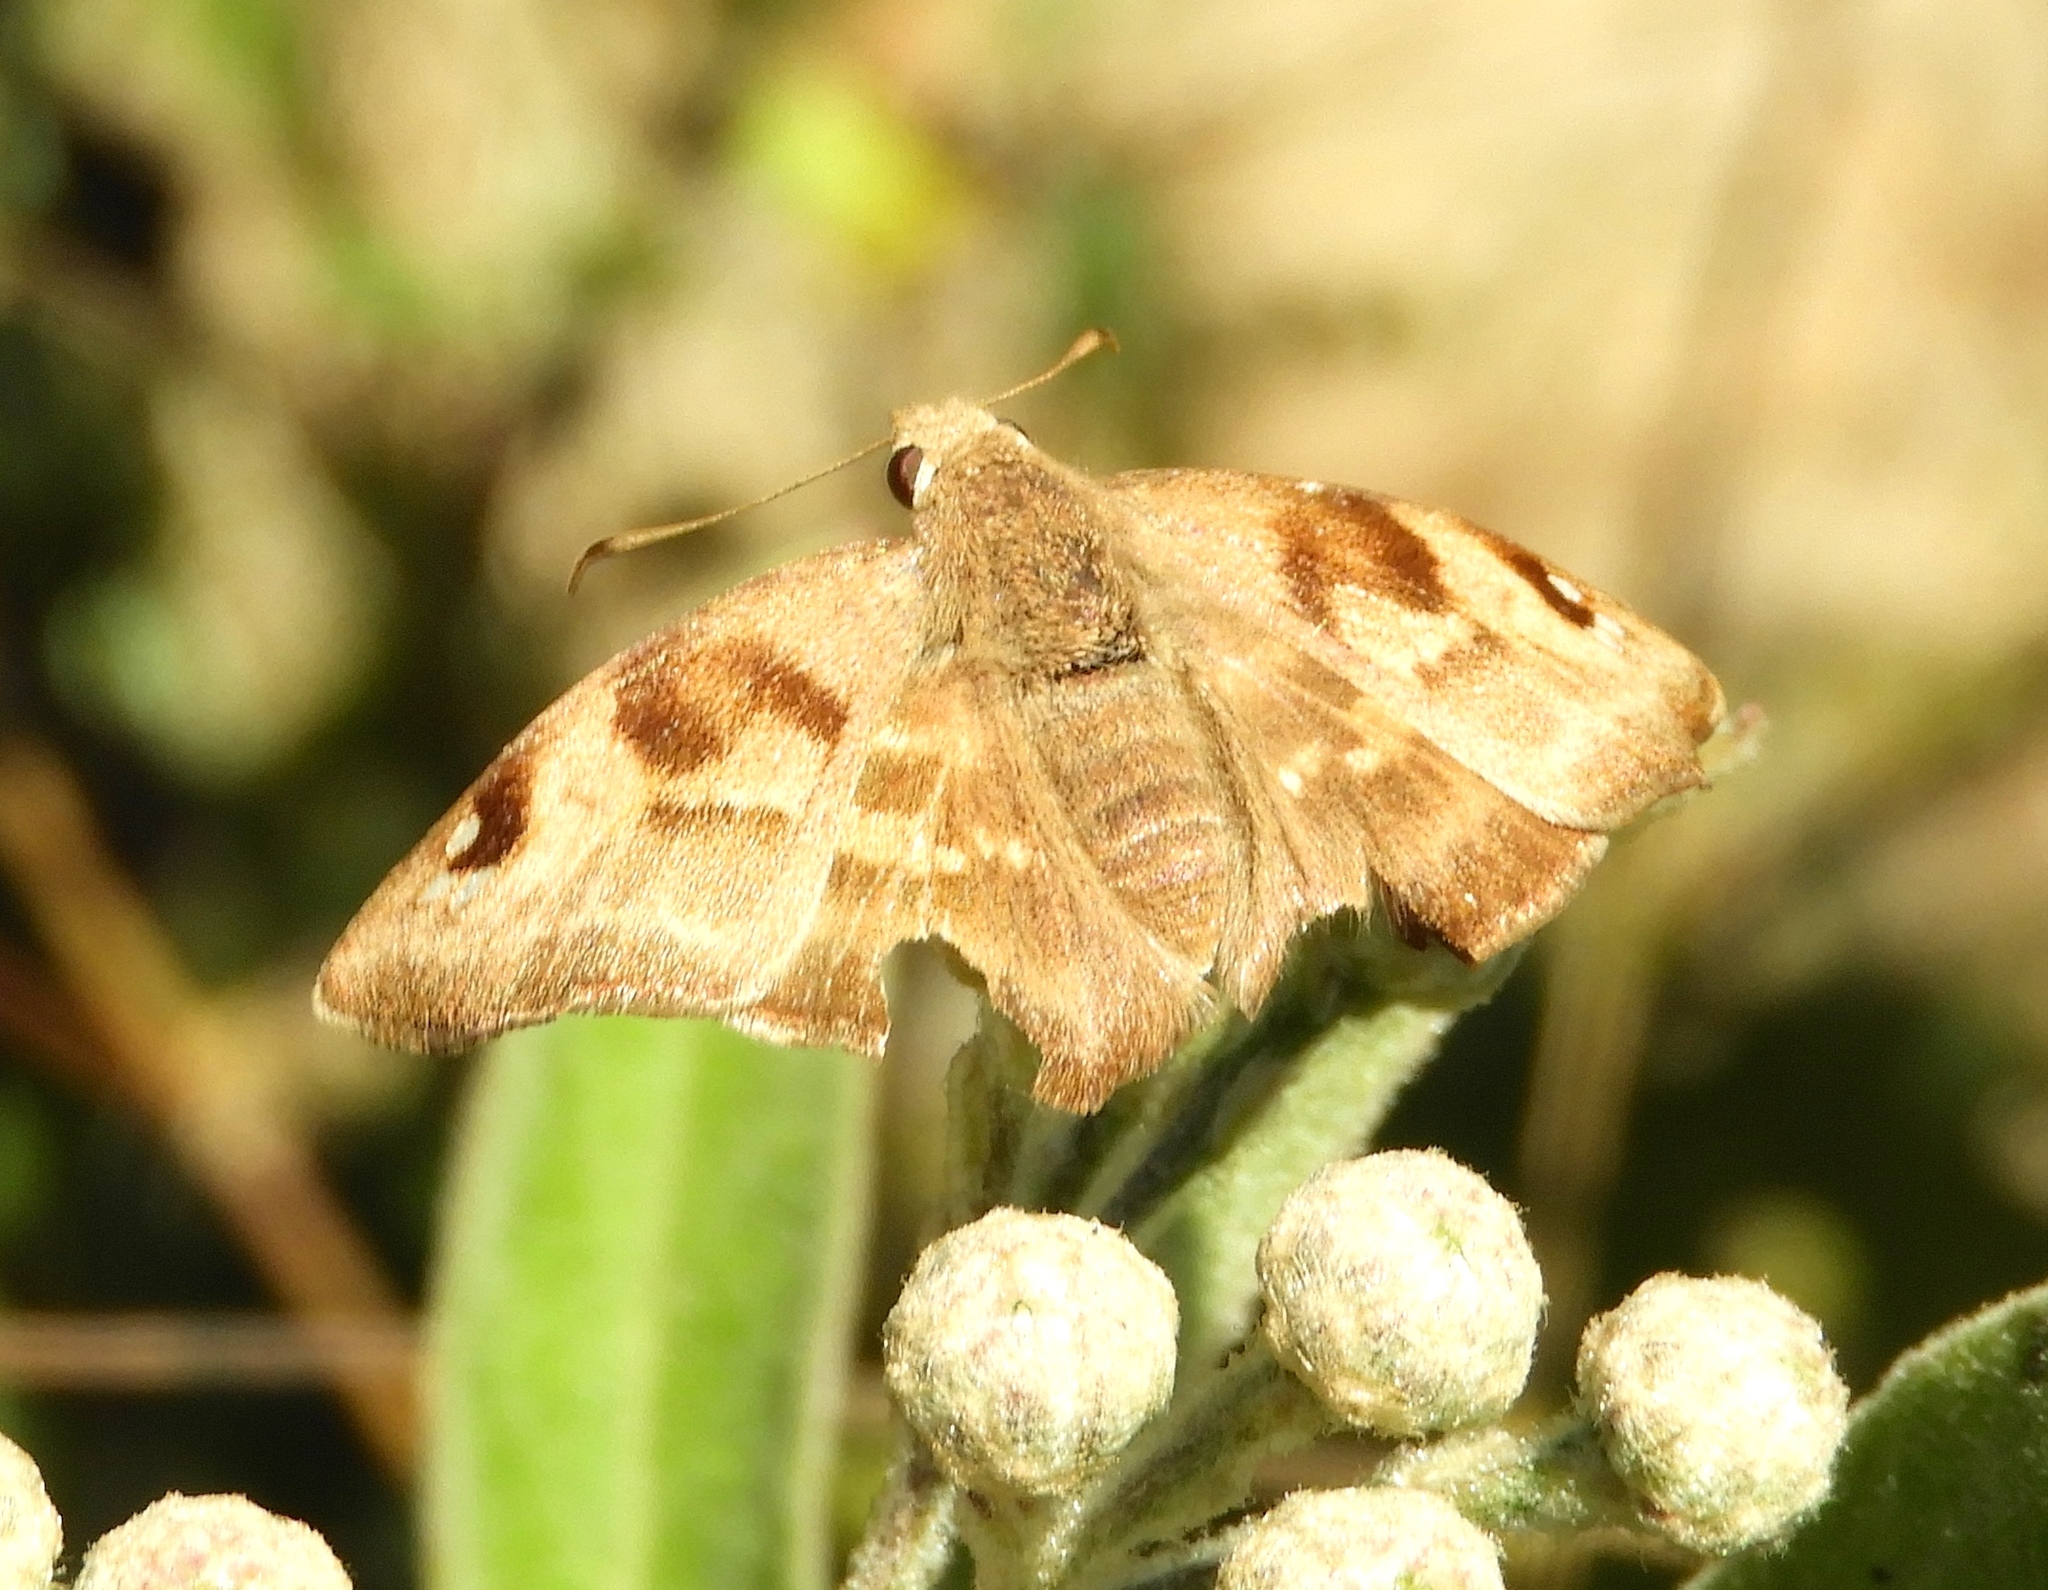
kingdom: Animalia
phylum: Arthropoda
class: Insecta
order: Lepidoptera
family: Hesperiidae
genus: Arteurotia
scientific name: Arteurotia tractipennis
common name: Starred skipper
